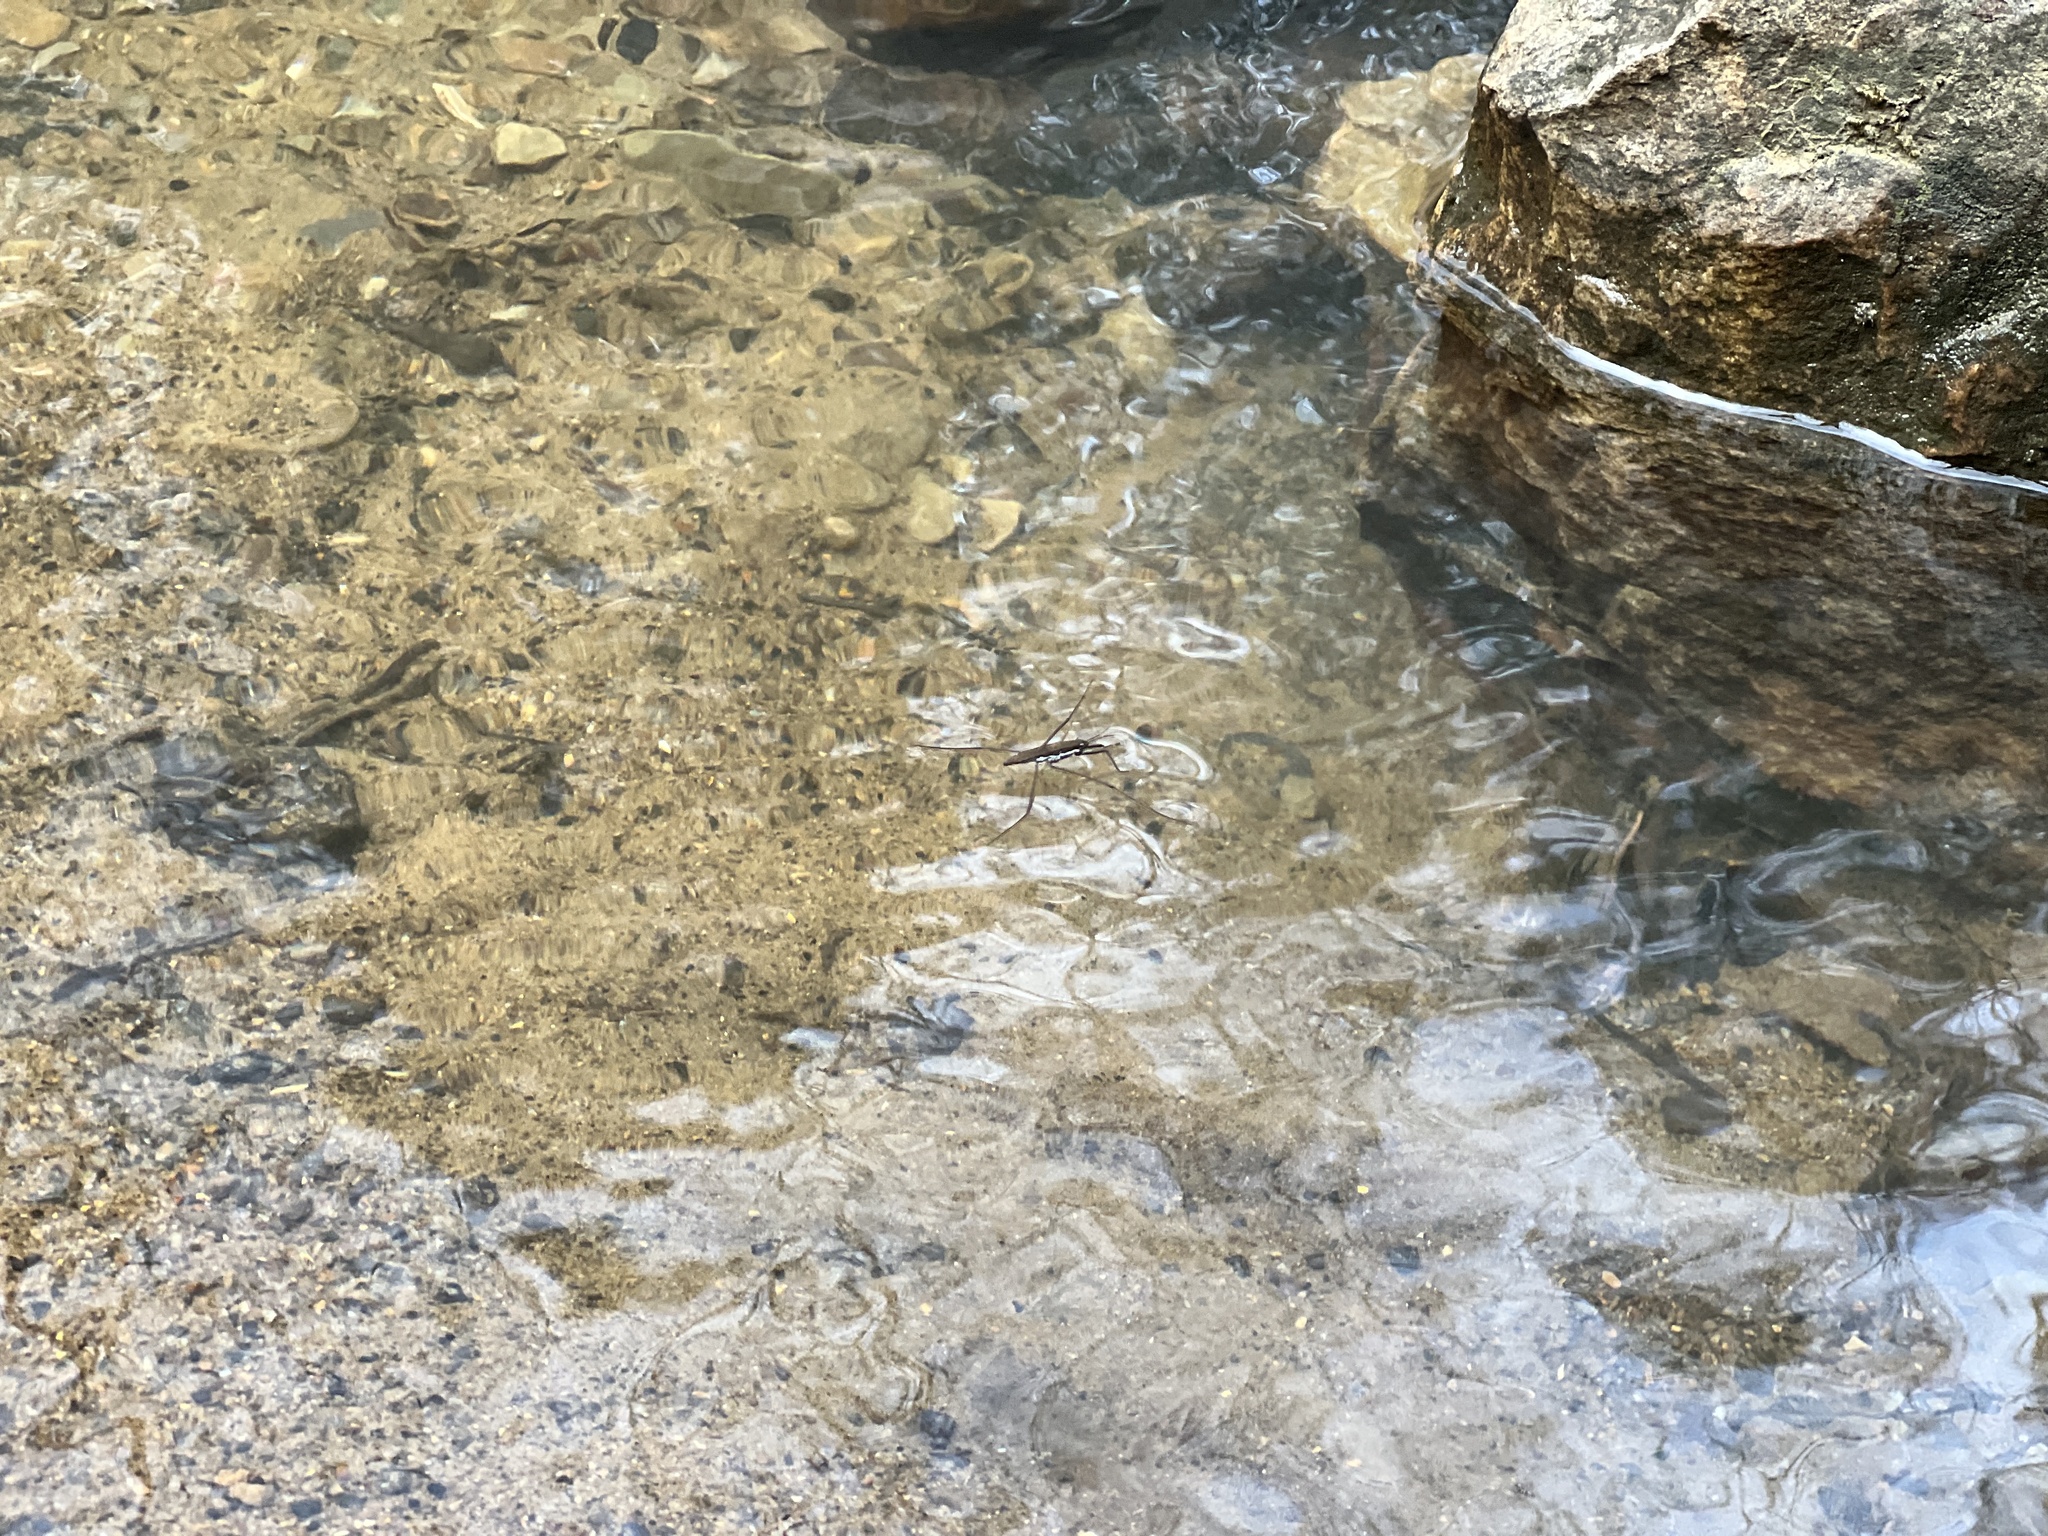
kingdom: Animalia
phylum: Arthropoda
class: Insecta
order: Hemiptera
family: Gerridae
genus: Aquarius
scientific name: Aquarius
